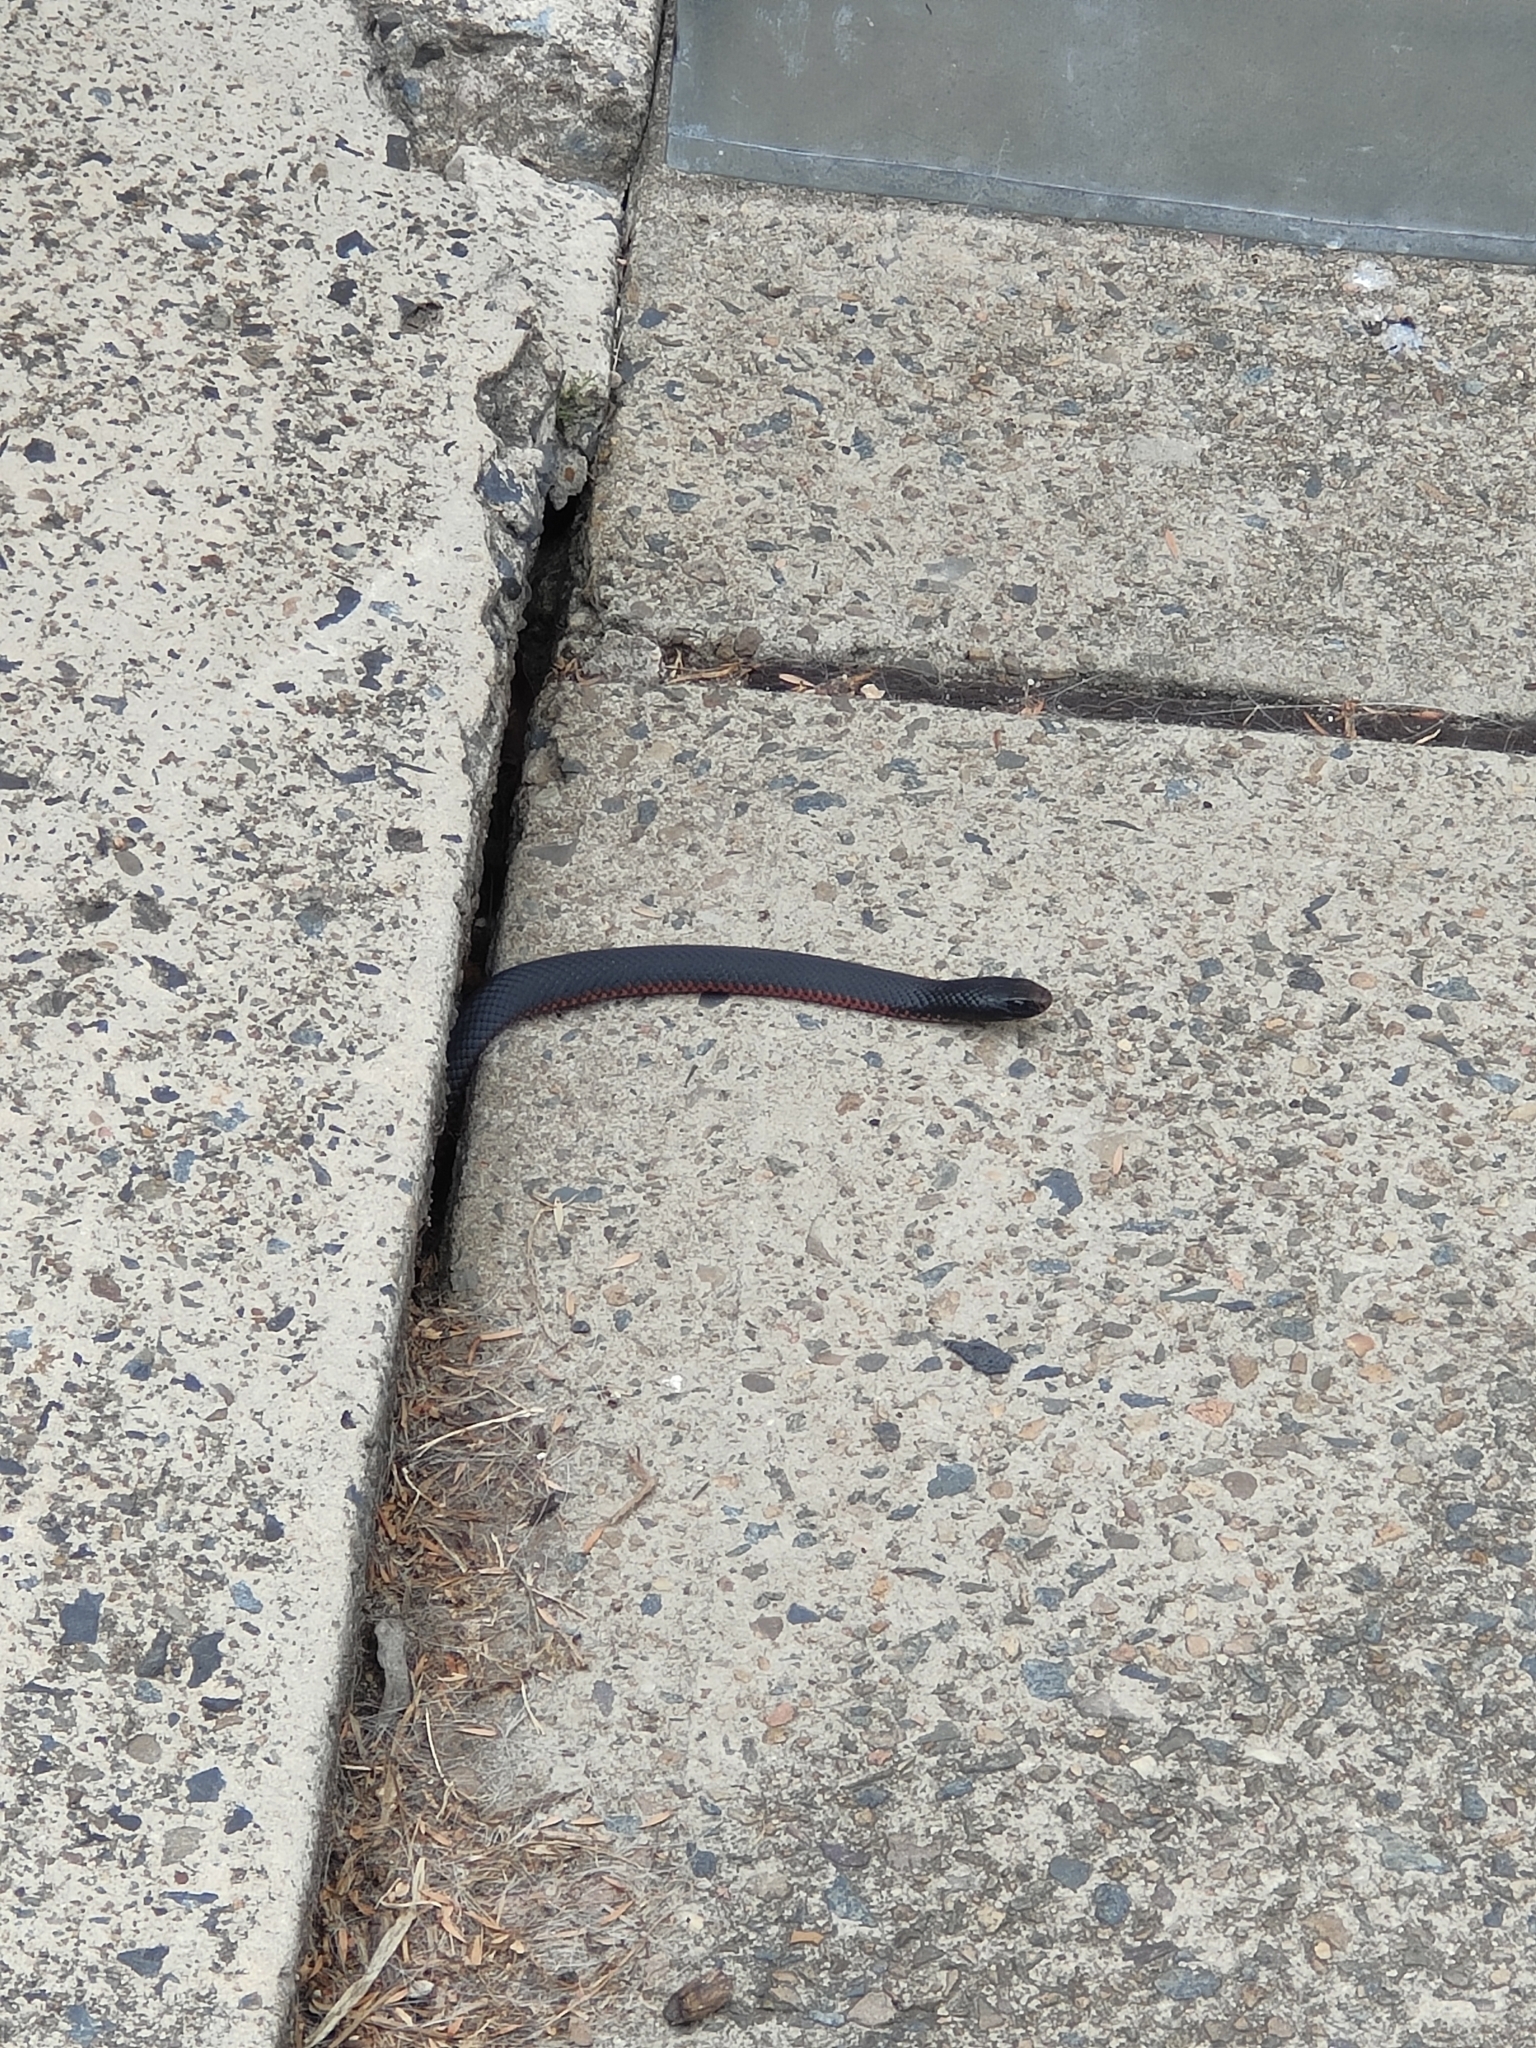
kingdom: Animalia
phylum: Chordata
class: Squamata
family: Elapidae
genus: Pseudechis
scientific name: Pseudechis porphyriacus
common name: Australian black snake
